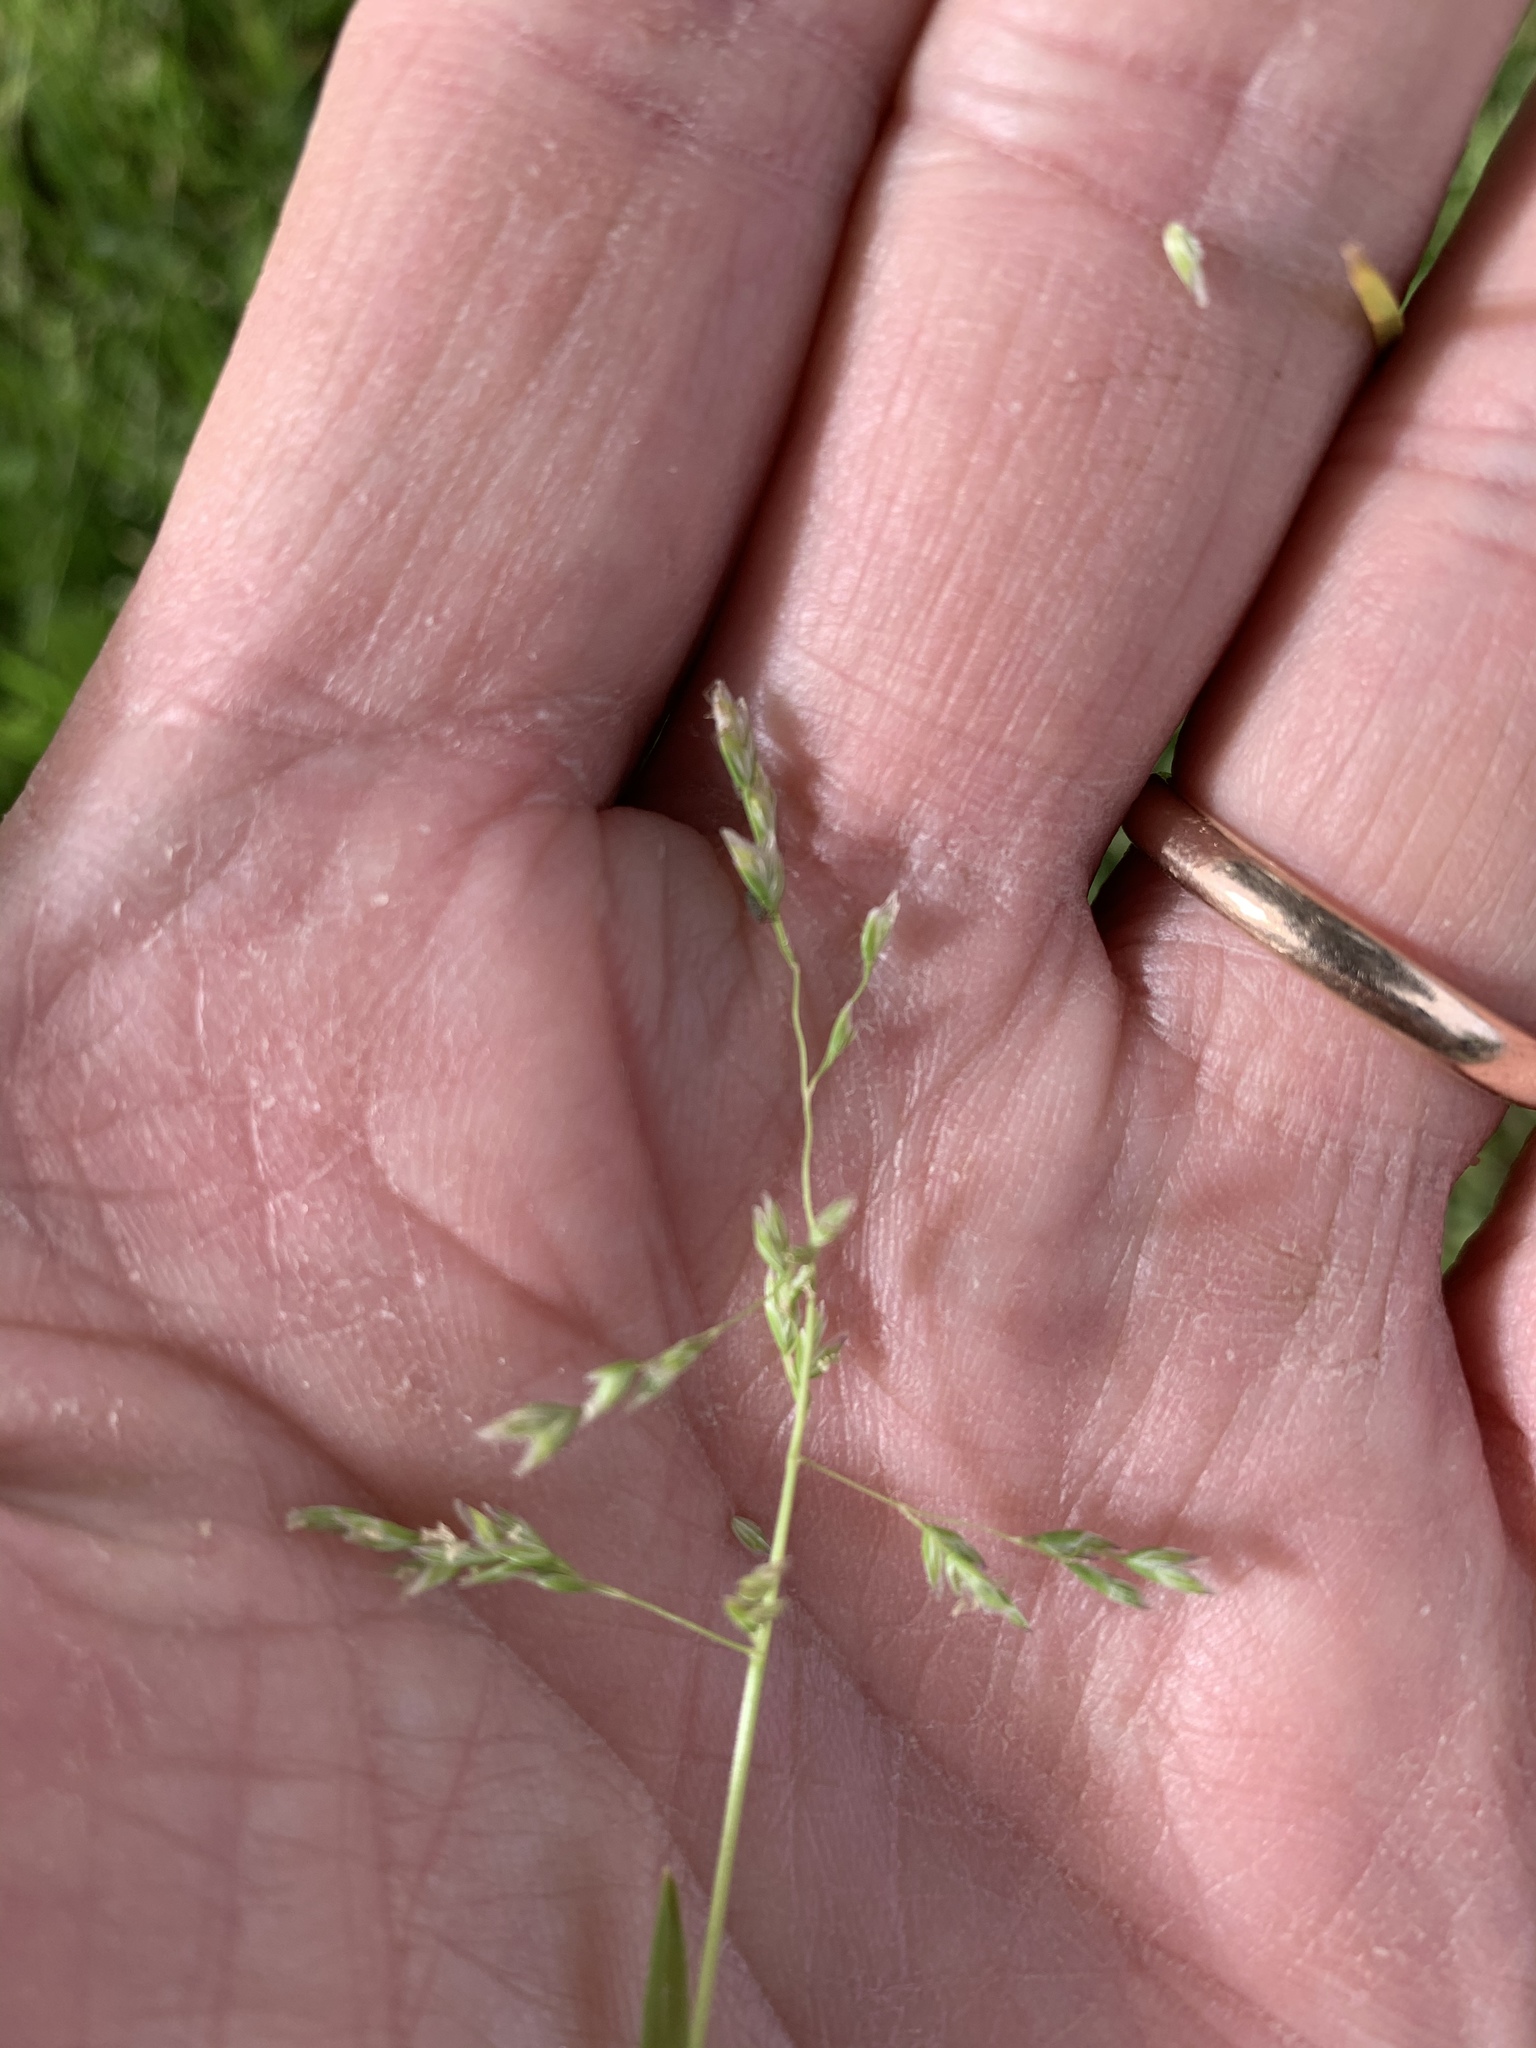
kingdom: Plantae
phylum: Tracheophyta
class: Liliopsida
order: Poales
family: Poaceae
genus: Poa
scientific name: Poa annua
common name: Annual bluegrass
